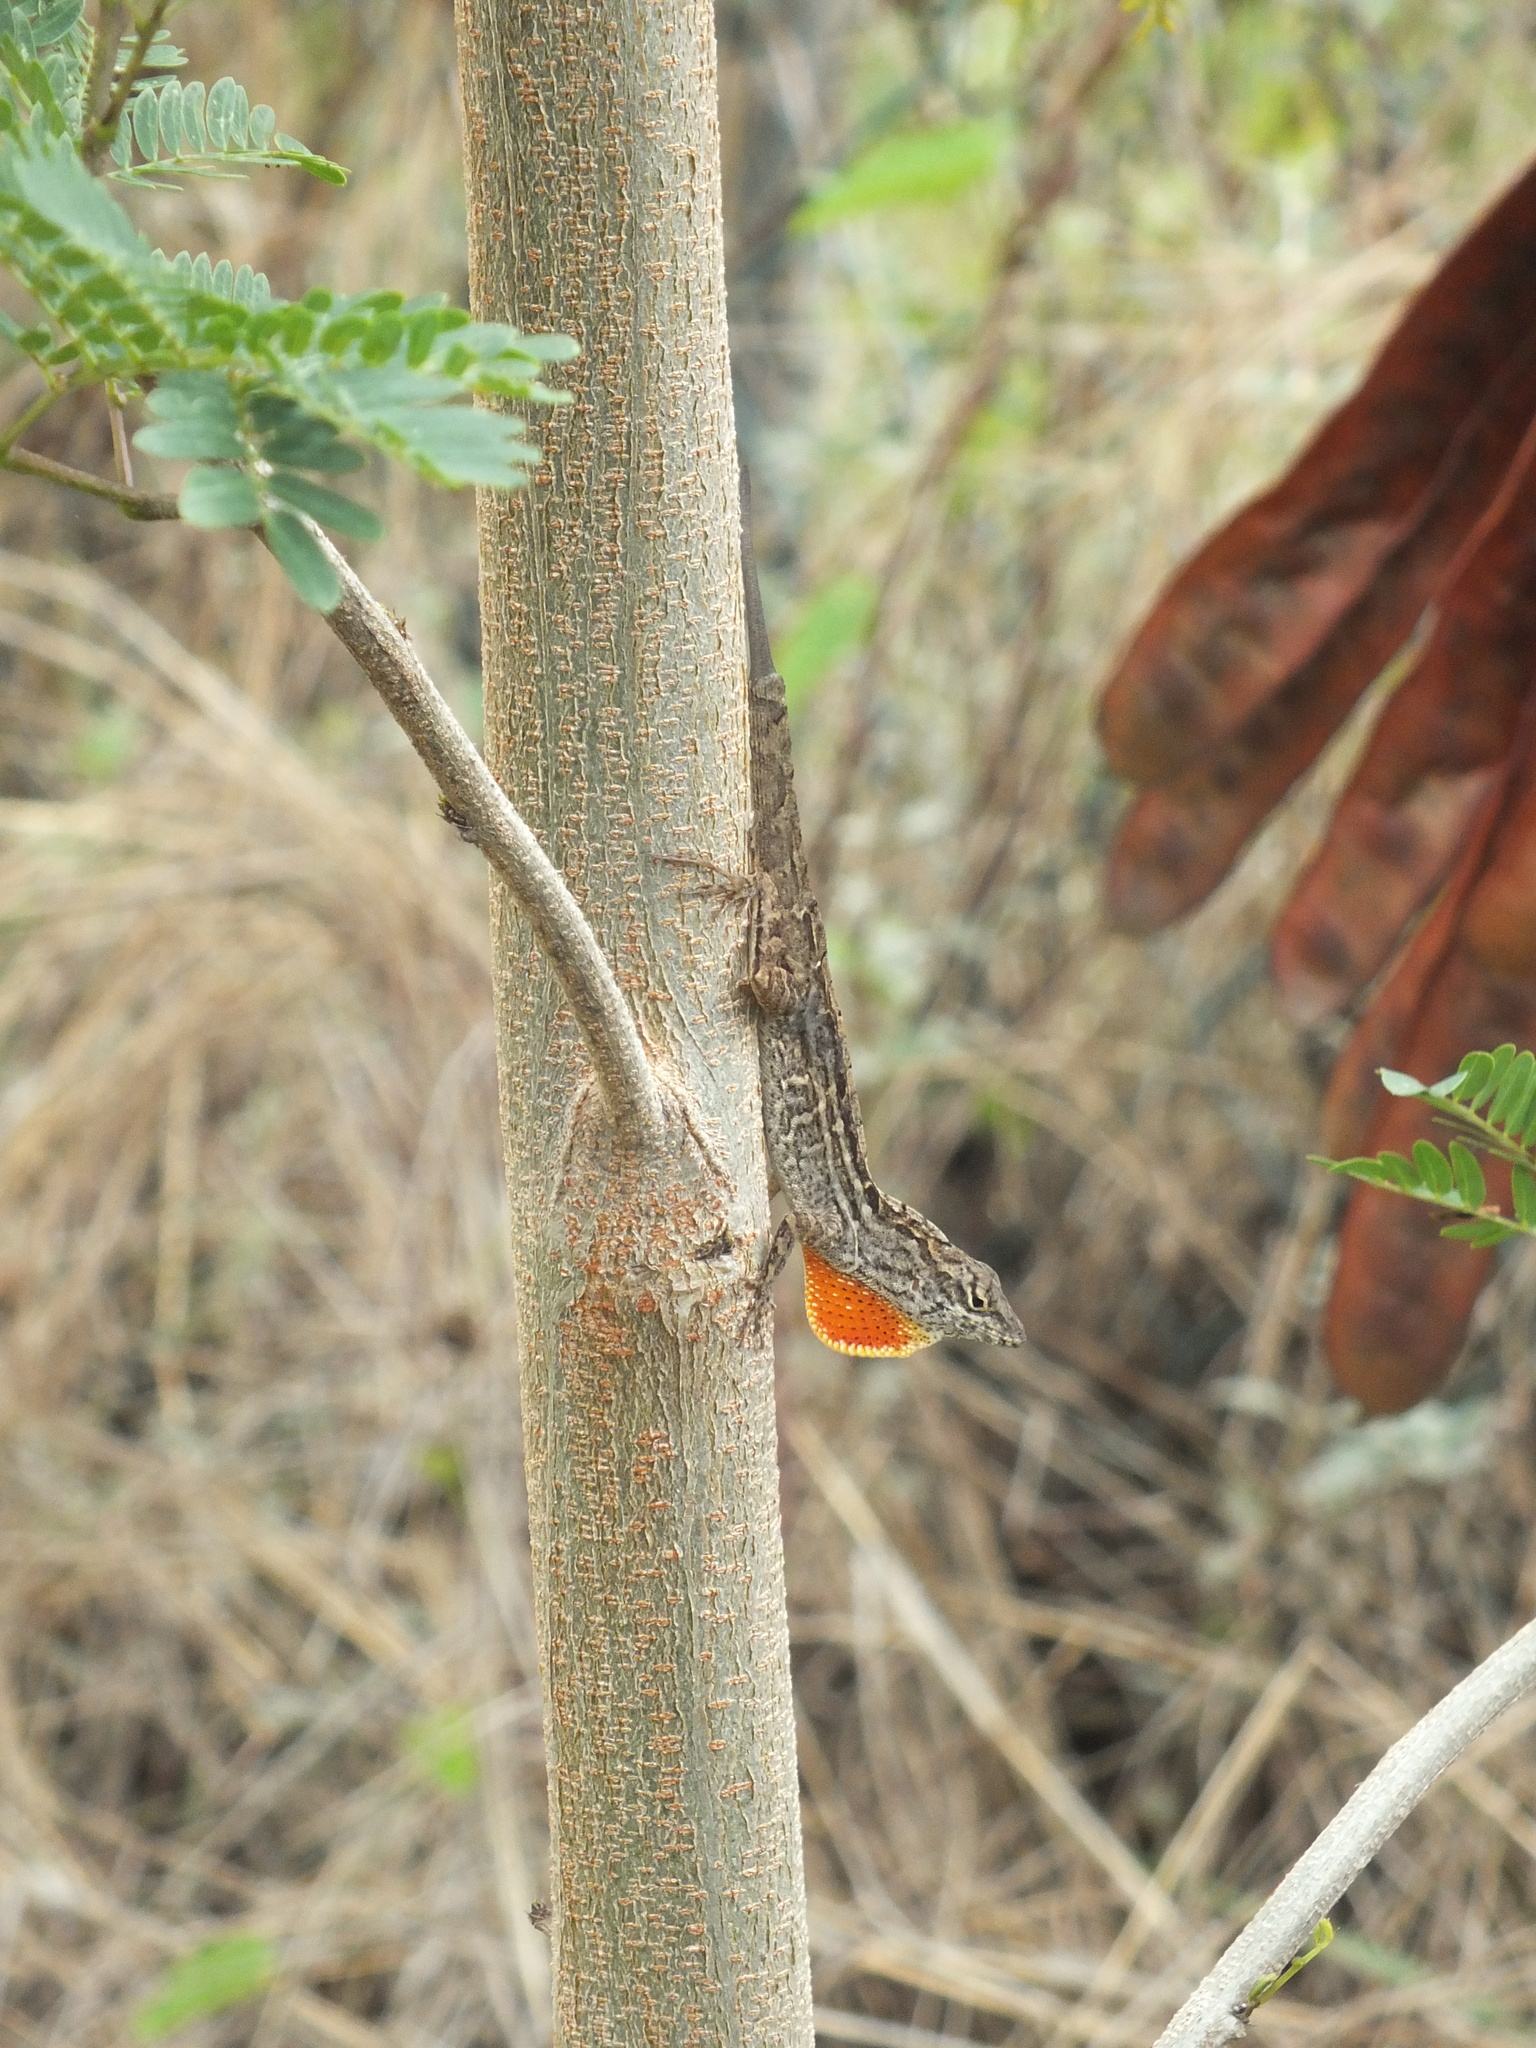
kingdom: Animalia
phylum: Chordata
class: Squamata
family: Dactyloidae
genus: Anolis
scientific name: Anolis sagrei
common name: Brown anole
